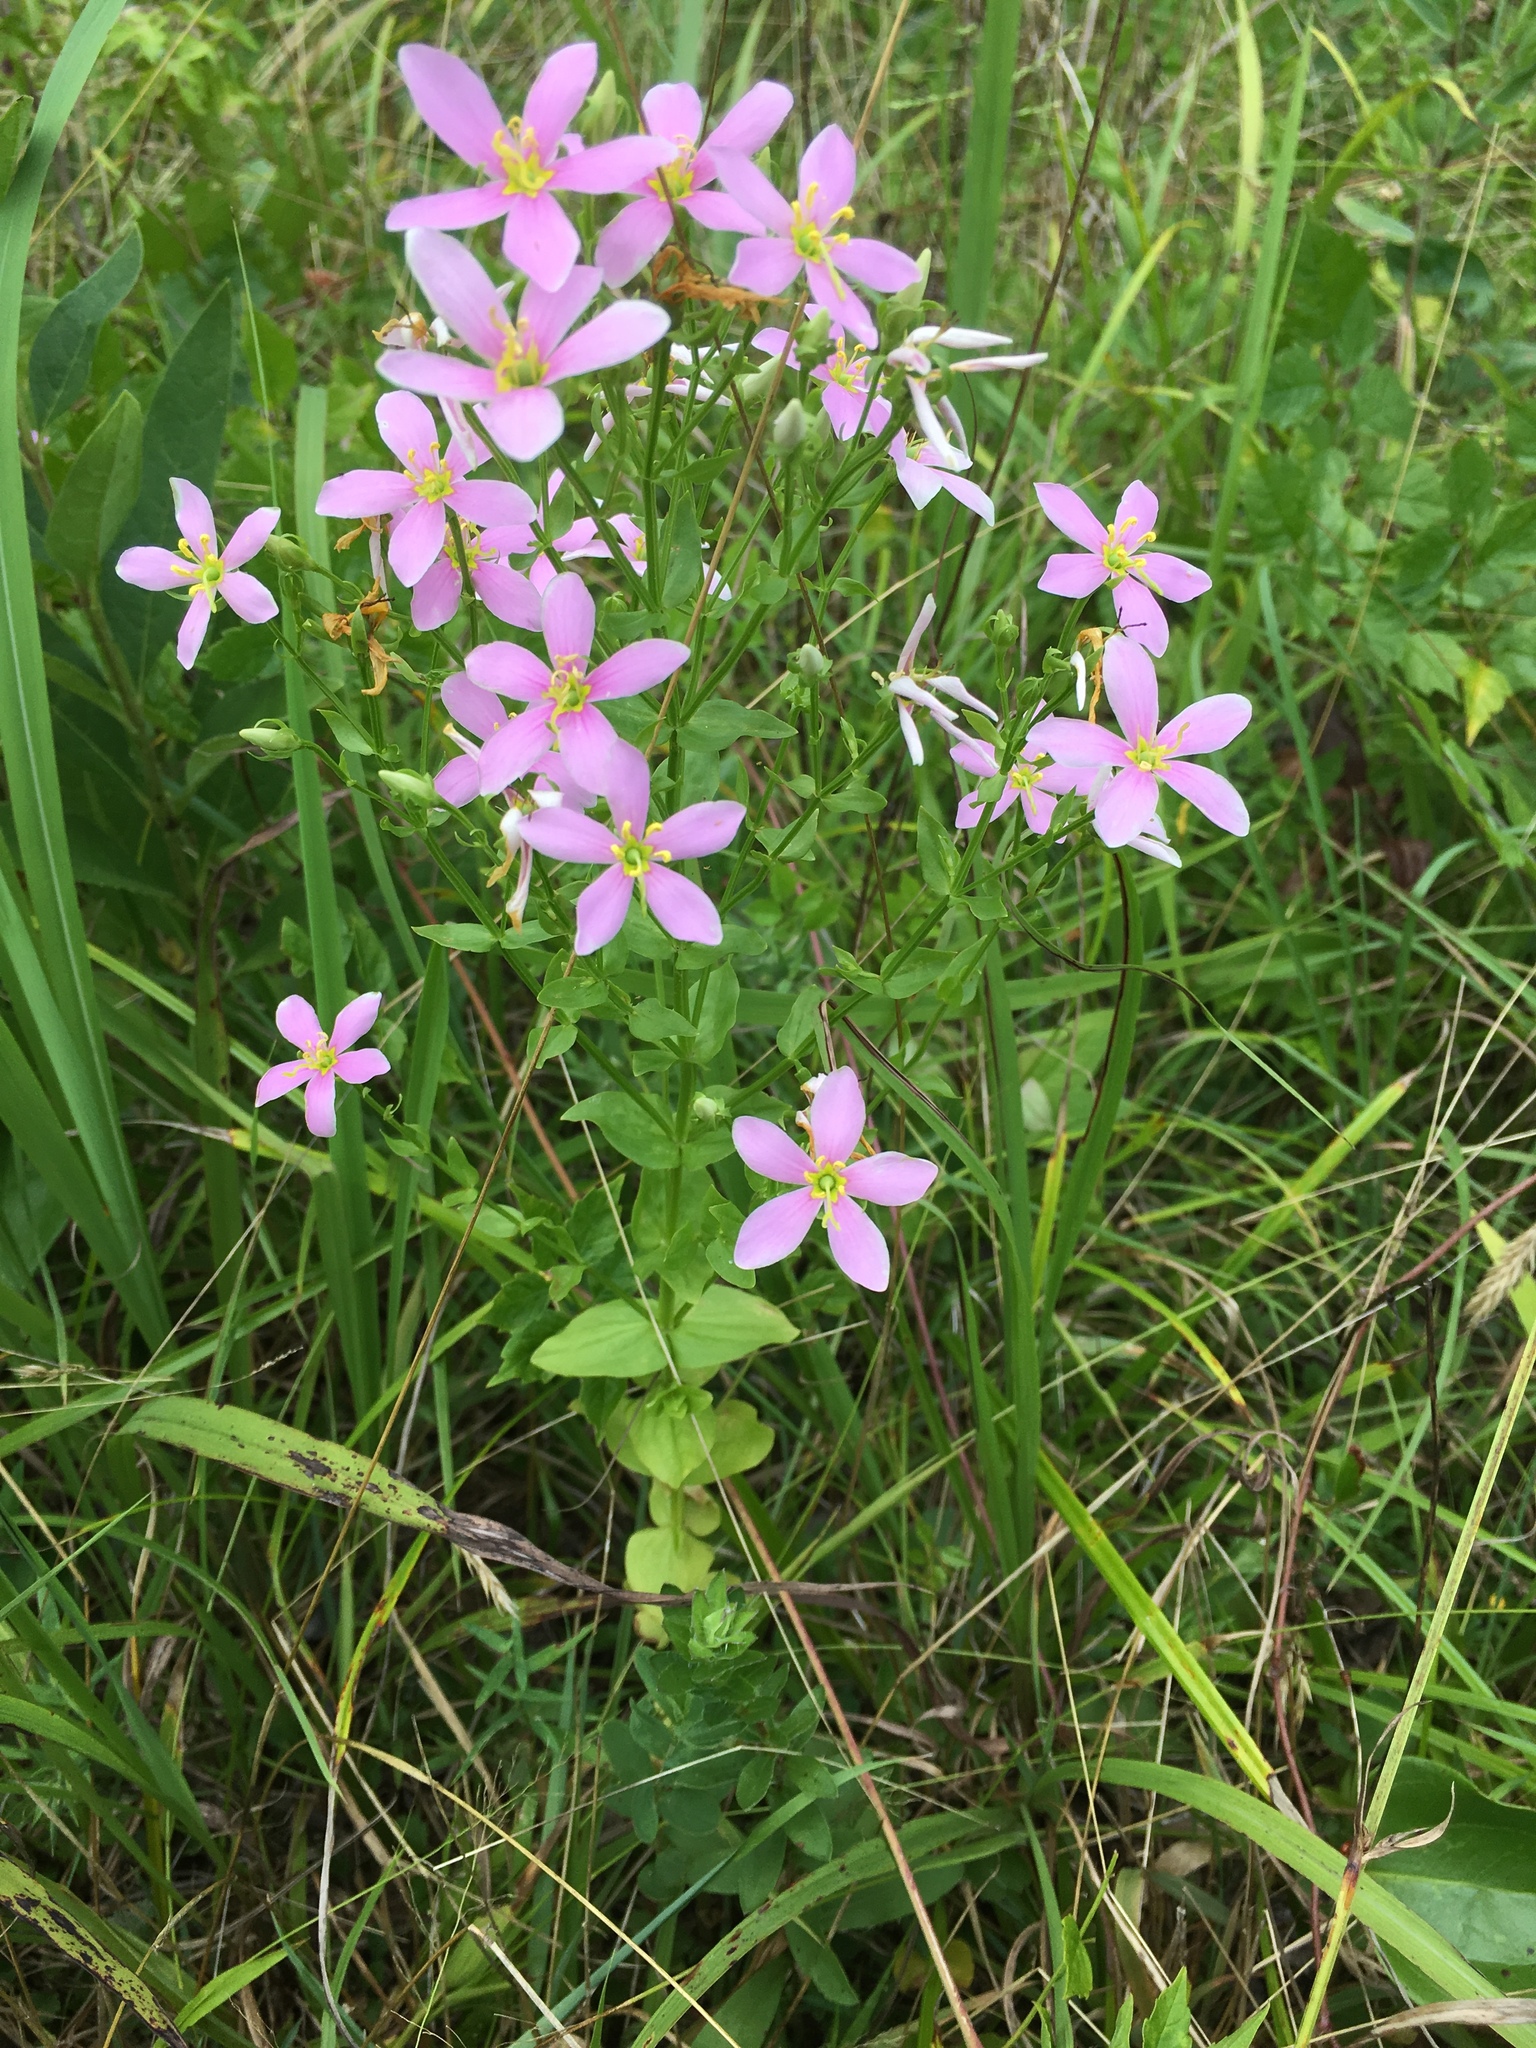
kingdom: Plantae
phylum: Tracheophyta
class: Magnoliopsida
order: Gentianales
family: Gentianaceae
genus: Sabatia
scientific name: Sabatia angularis
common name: Rose-pink
